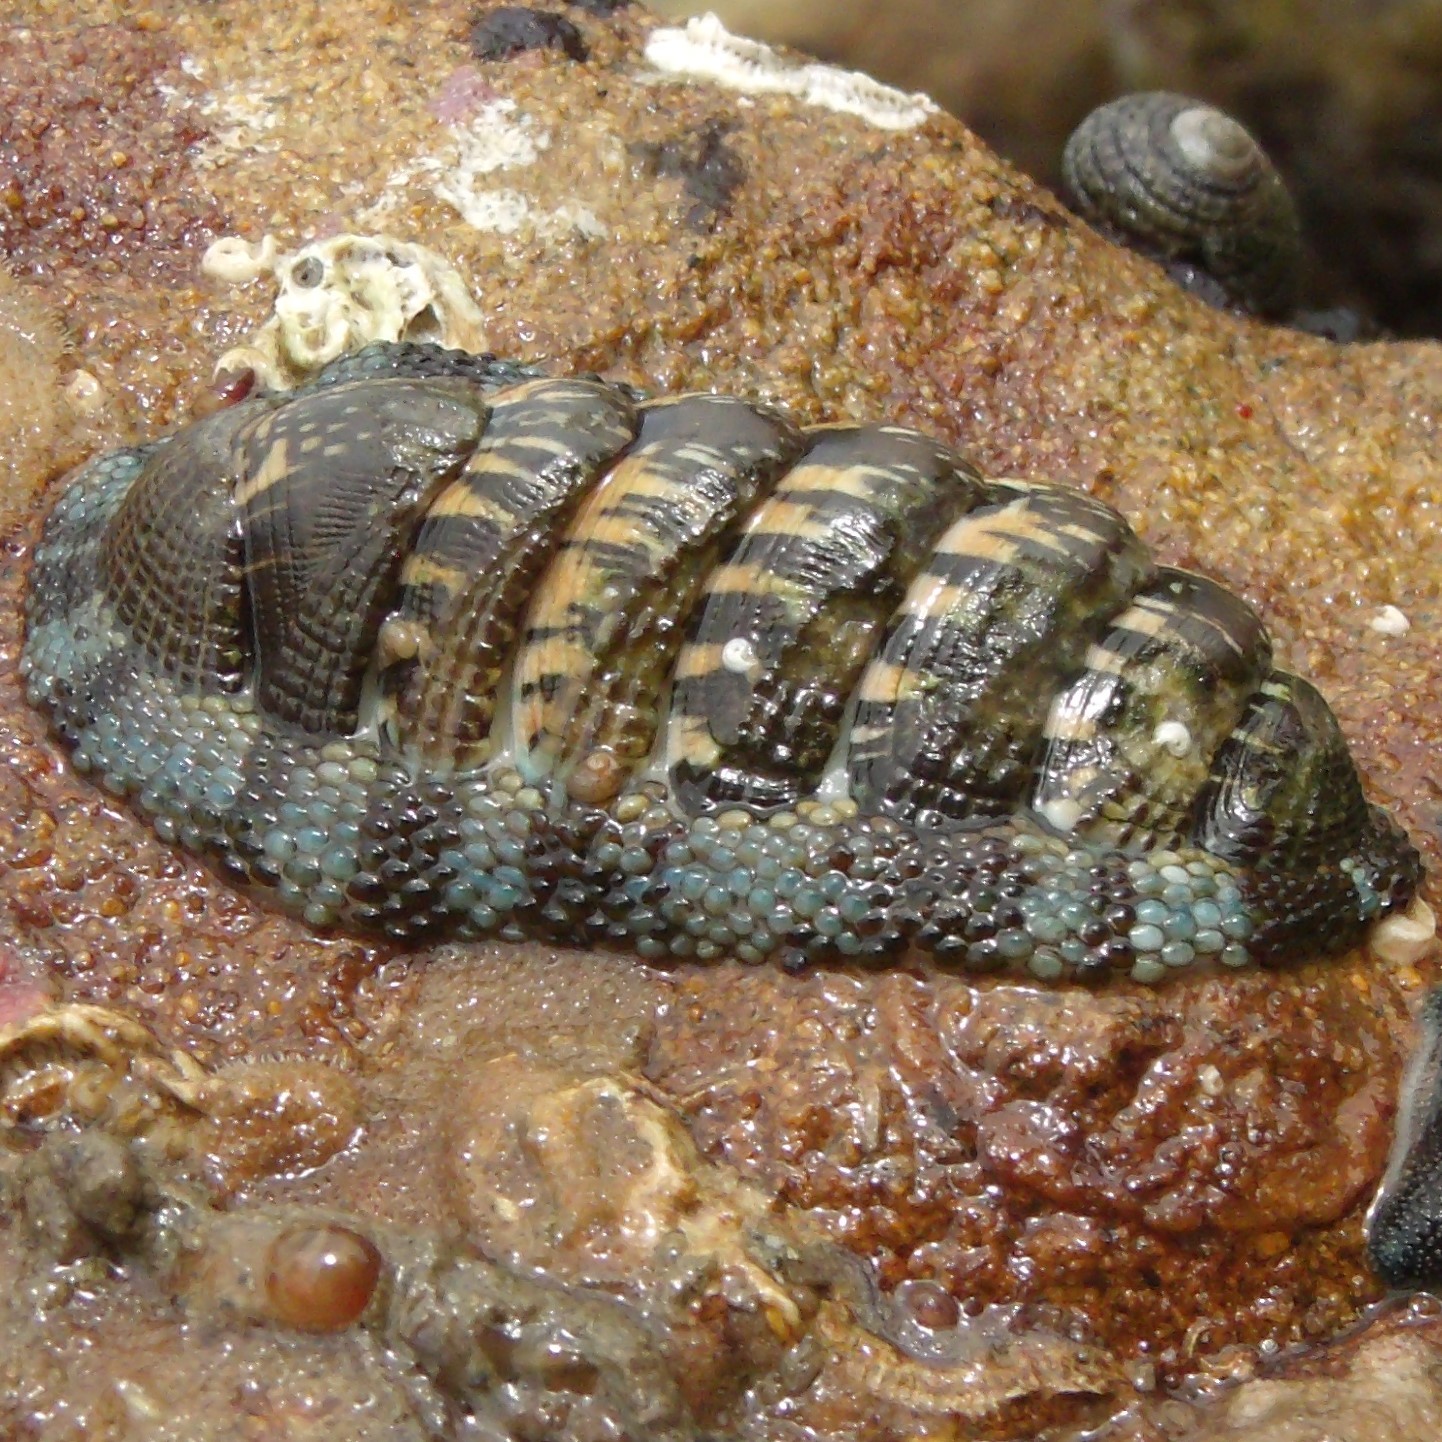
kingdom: Animalia
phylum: Mollusca
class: Polyplacophora
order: Chitonida
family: Chitonidae
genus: Sypharochiton
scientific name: Sypharochiton sinclairi
